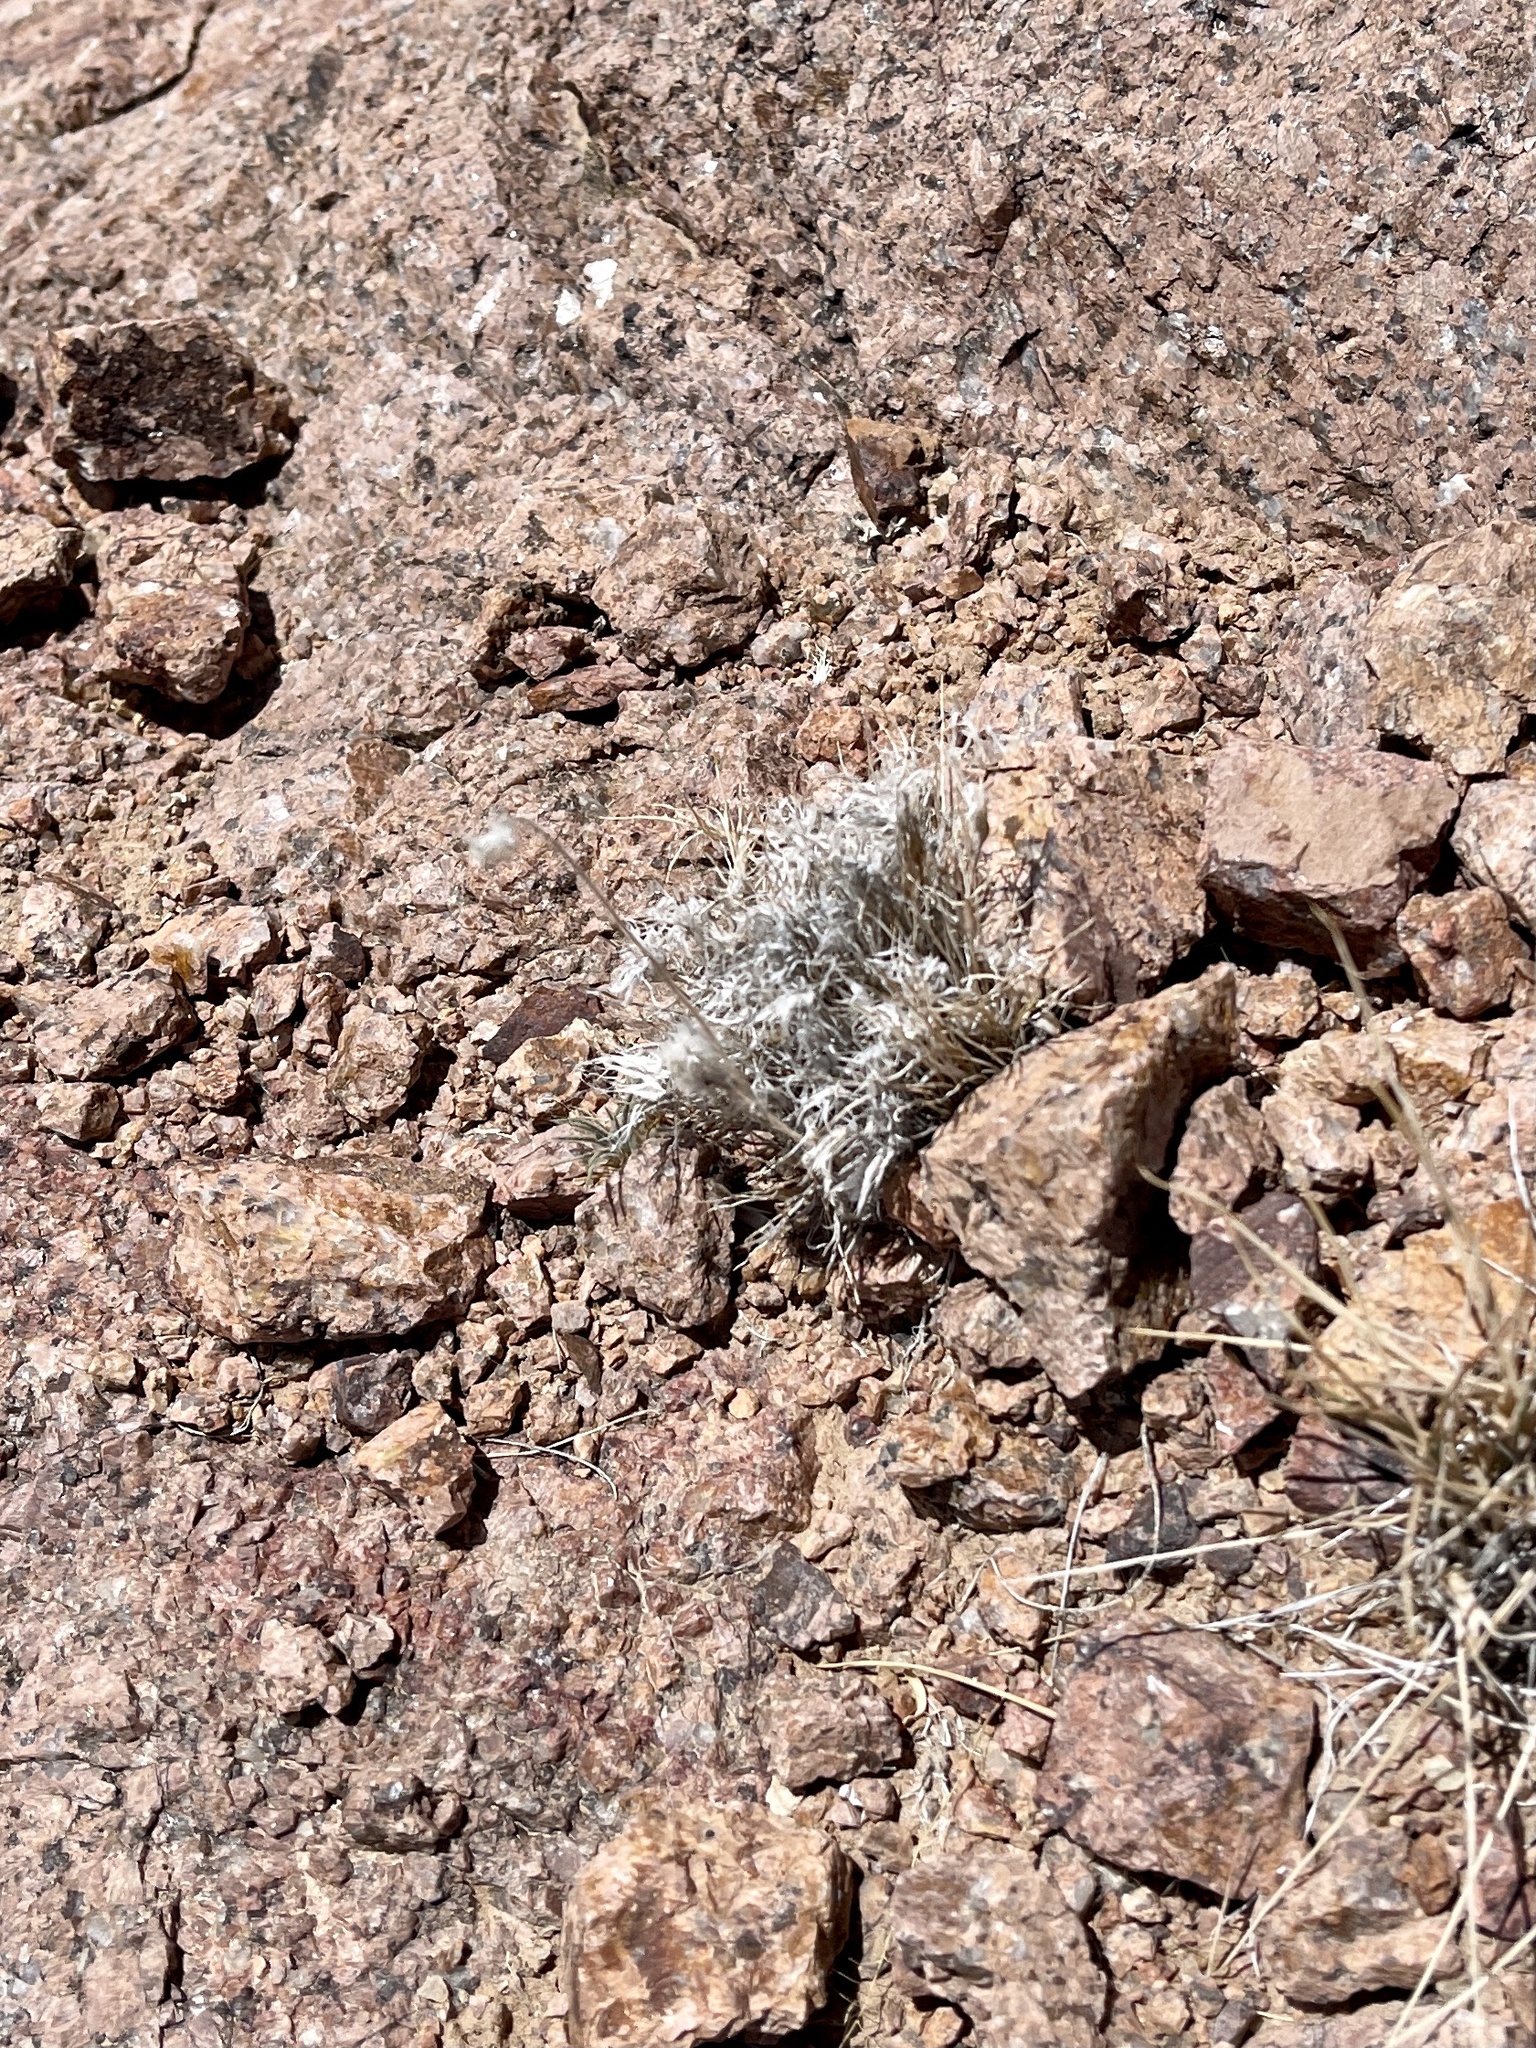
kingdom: Plantae
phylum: Tracheophyta
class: Liliopsida
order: Poales
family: Poaceae
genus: Dasyochloa
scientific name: Dasyochloa pulchella
